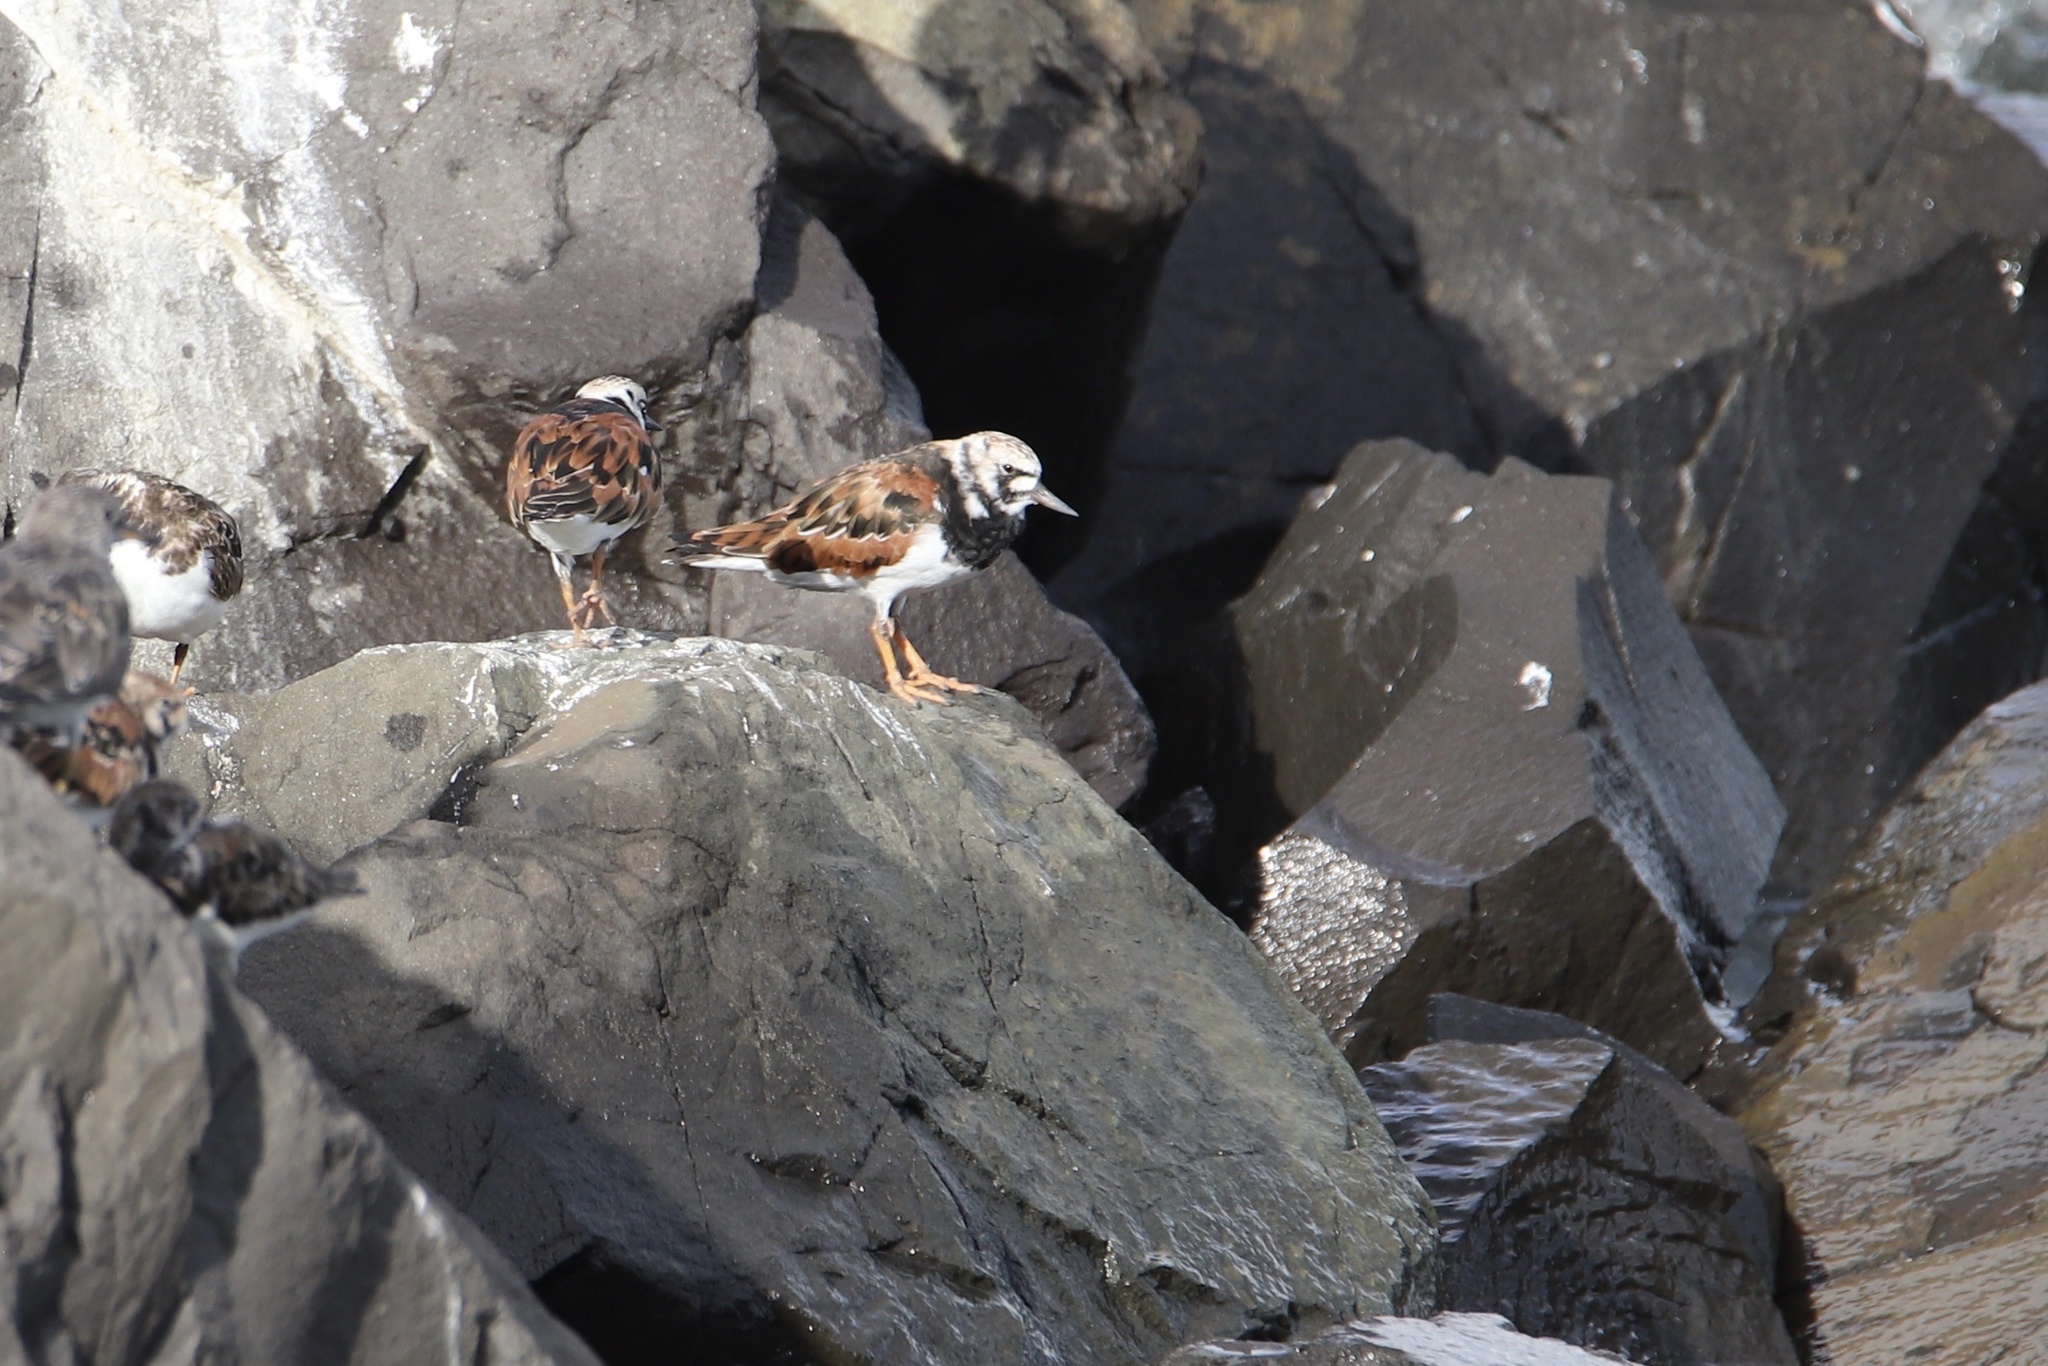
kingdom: Animalia
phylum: Chordata
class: Aves
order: Charadriiformes
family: Scolopacidae
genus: Arenaria
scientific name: Arenaria interpres
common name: Ruddy turnstone
